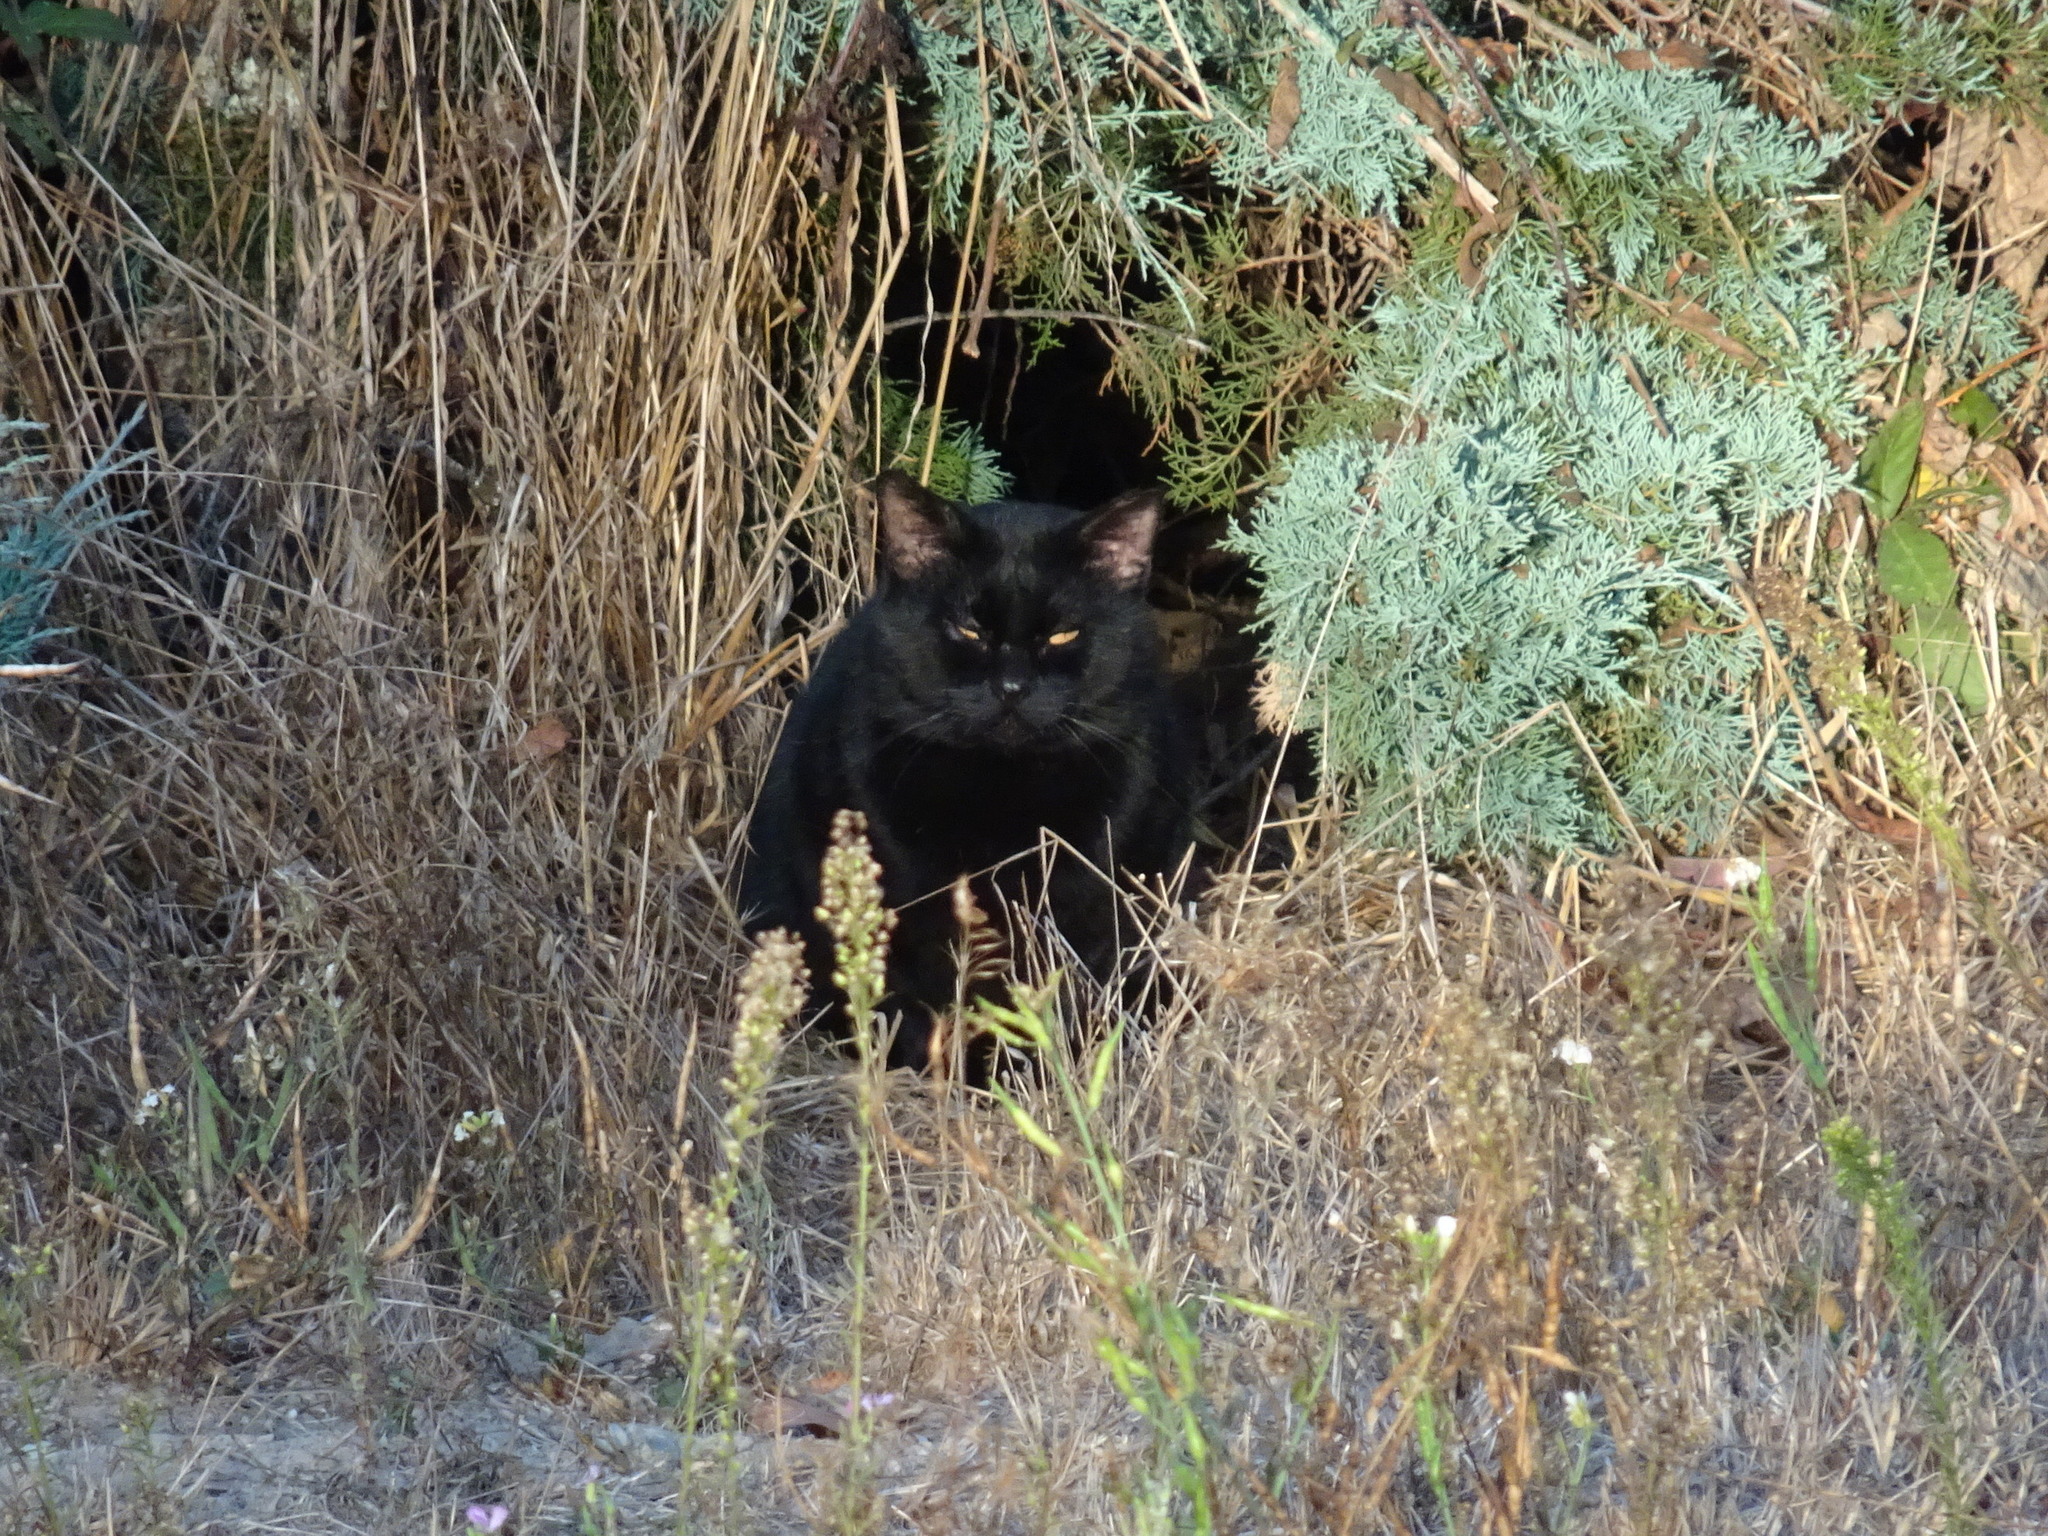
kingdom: Animalia
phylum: Chordata
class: Mammalia
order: Carnivora
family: Felidae
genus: Felis
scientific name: Felis catus
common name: Domestic cat
